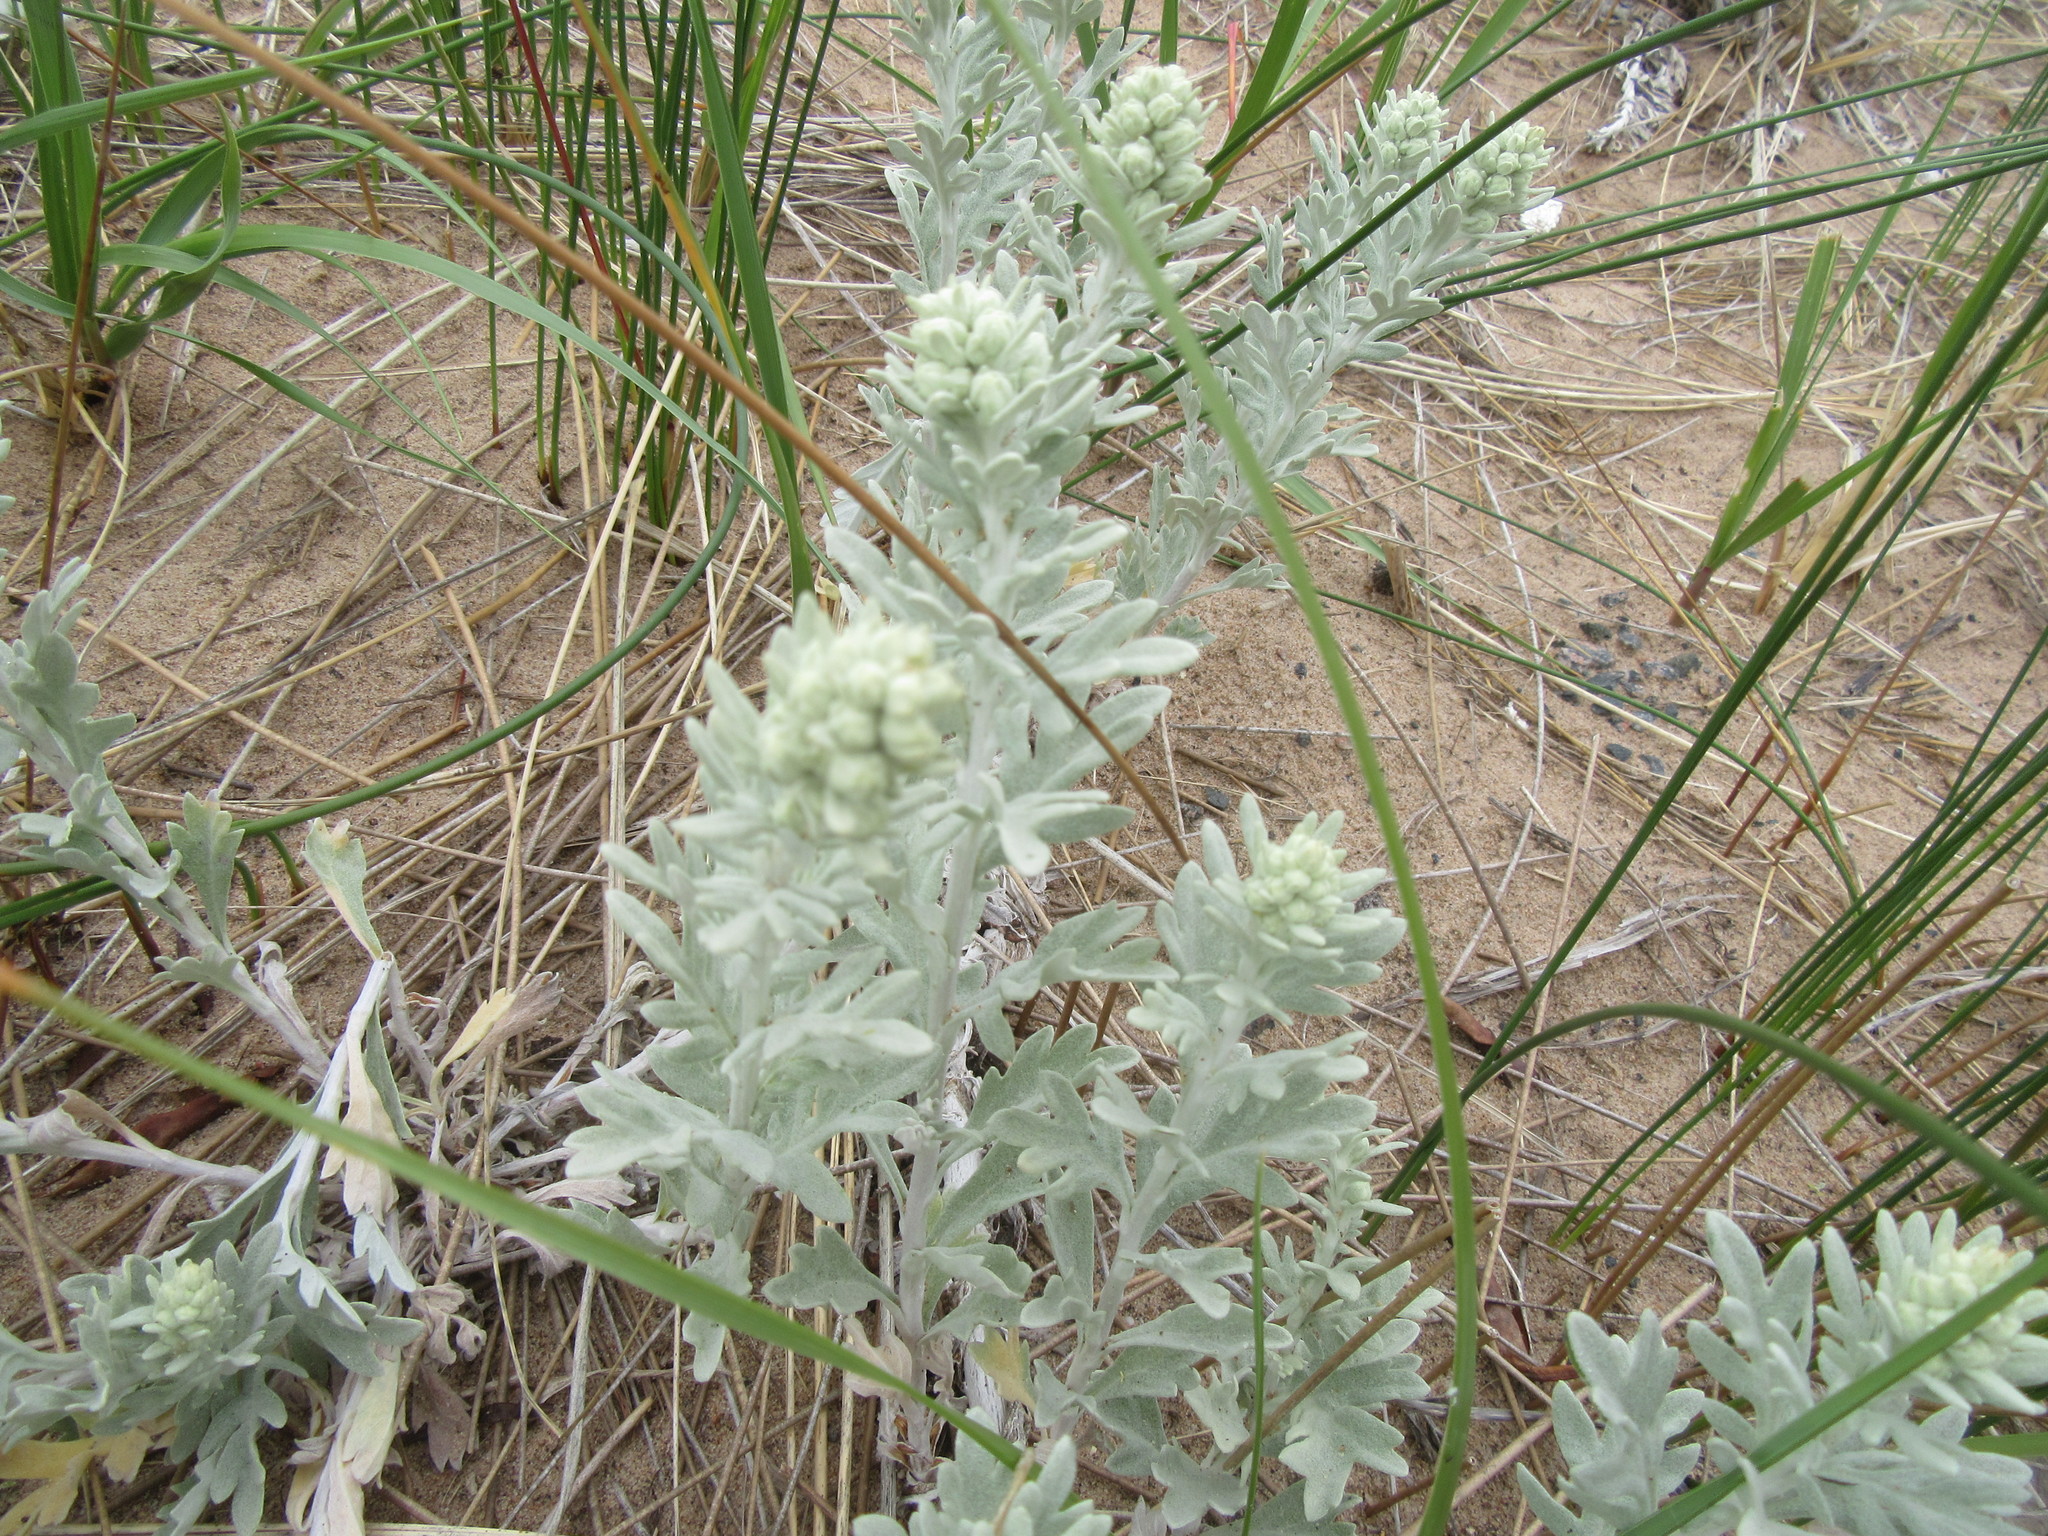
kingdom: Plantae
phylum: Tracheophyta
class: Magnoliopsida
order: Asterales
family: Asteraceae
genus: Artemisia
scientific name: Artemisia stelleriana
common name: Beach wormwood
